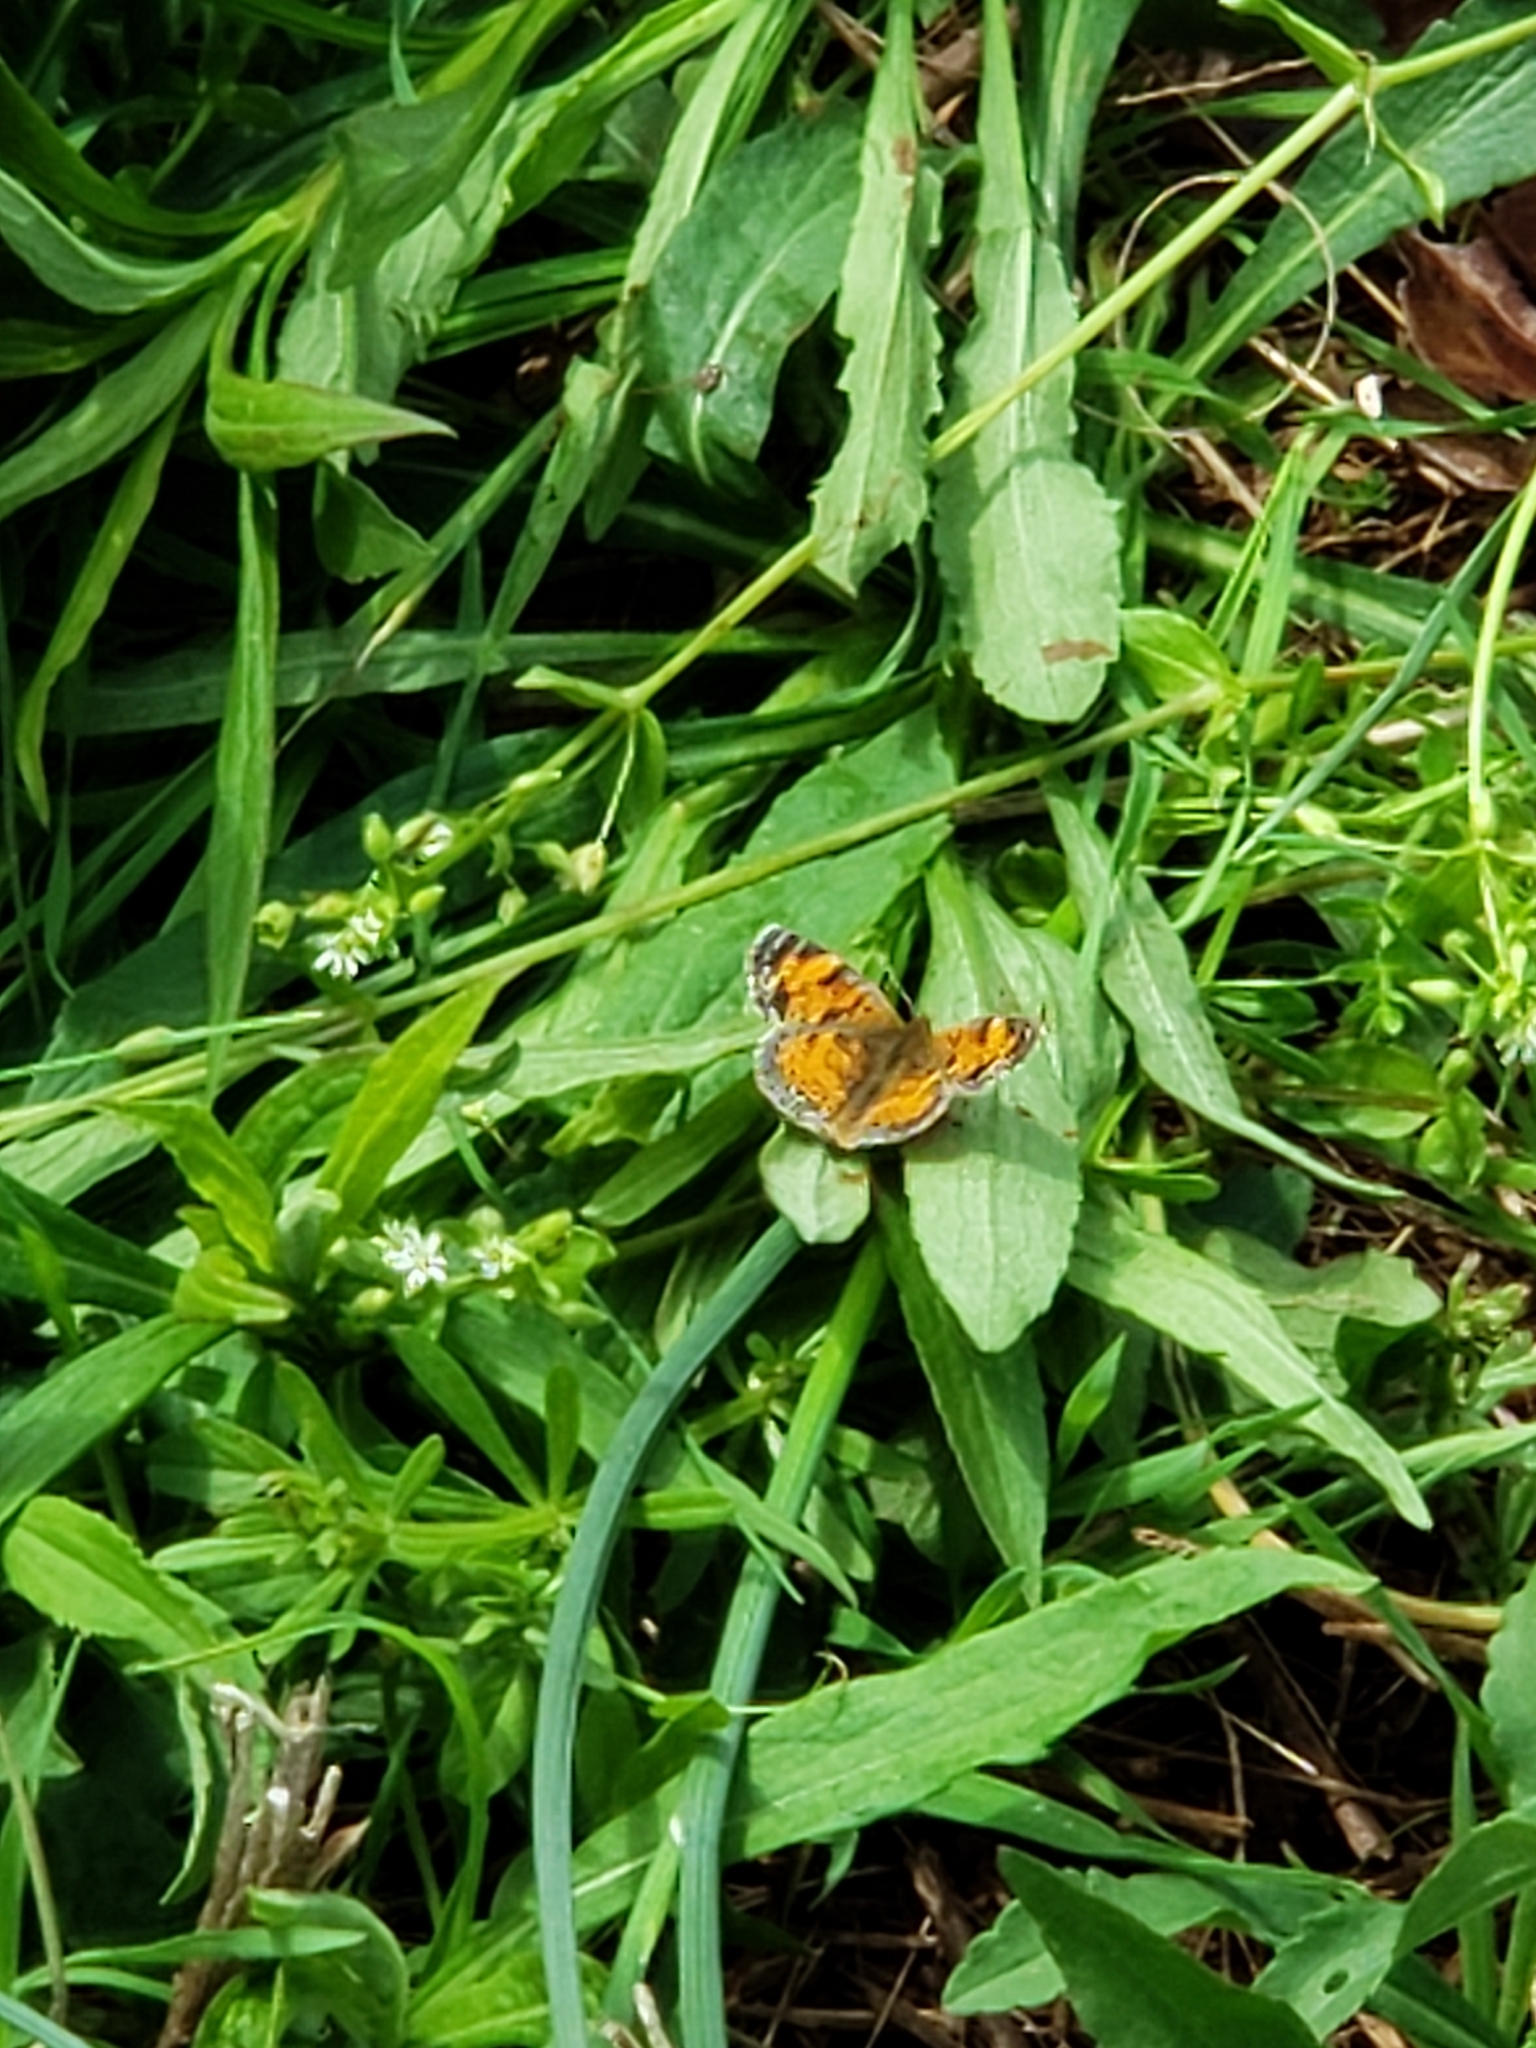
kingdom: Animalia
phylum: Arthropoda
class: Insecta
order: Lepidoptera
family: Nymphalidae
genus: Phyciodes
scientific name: Phyciodes tharos
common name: Pearl crescent
